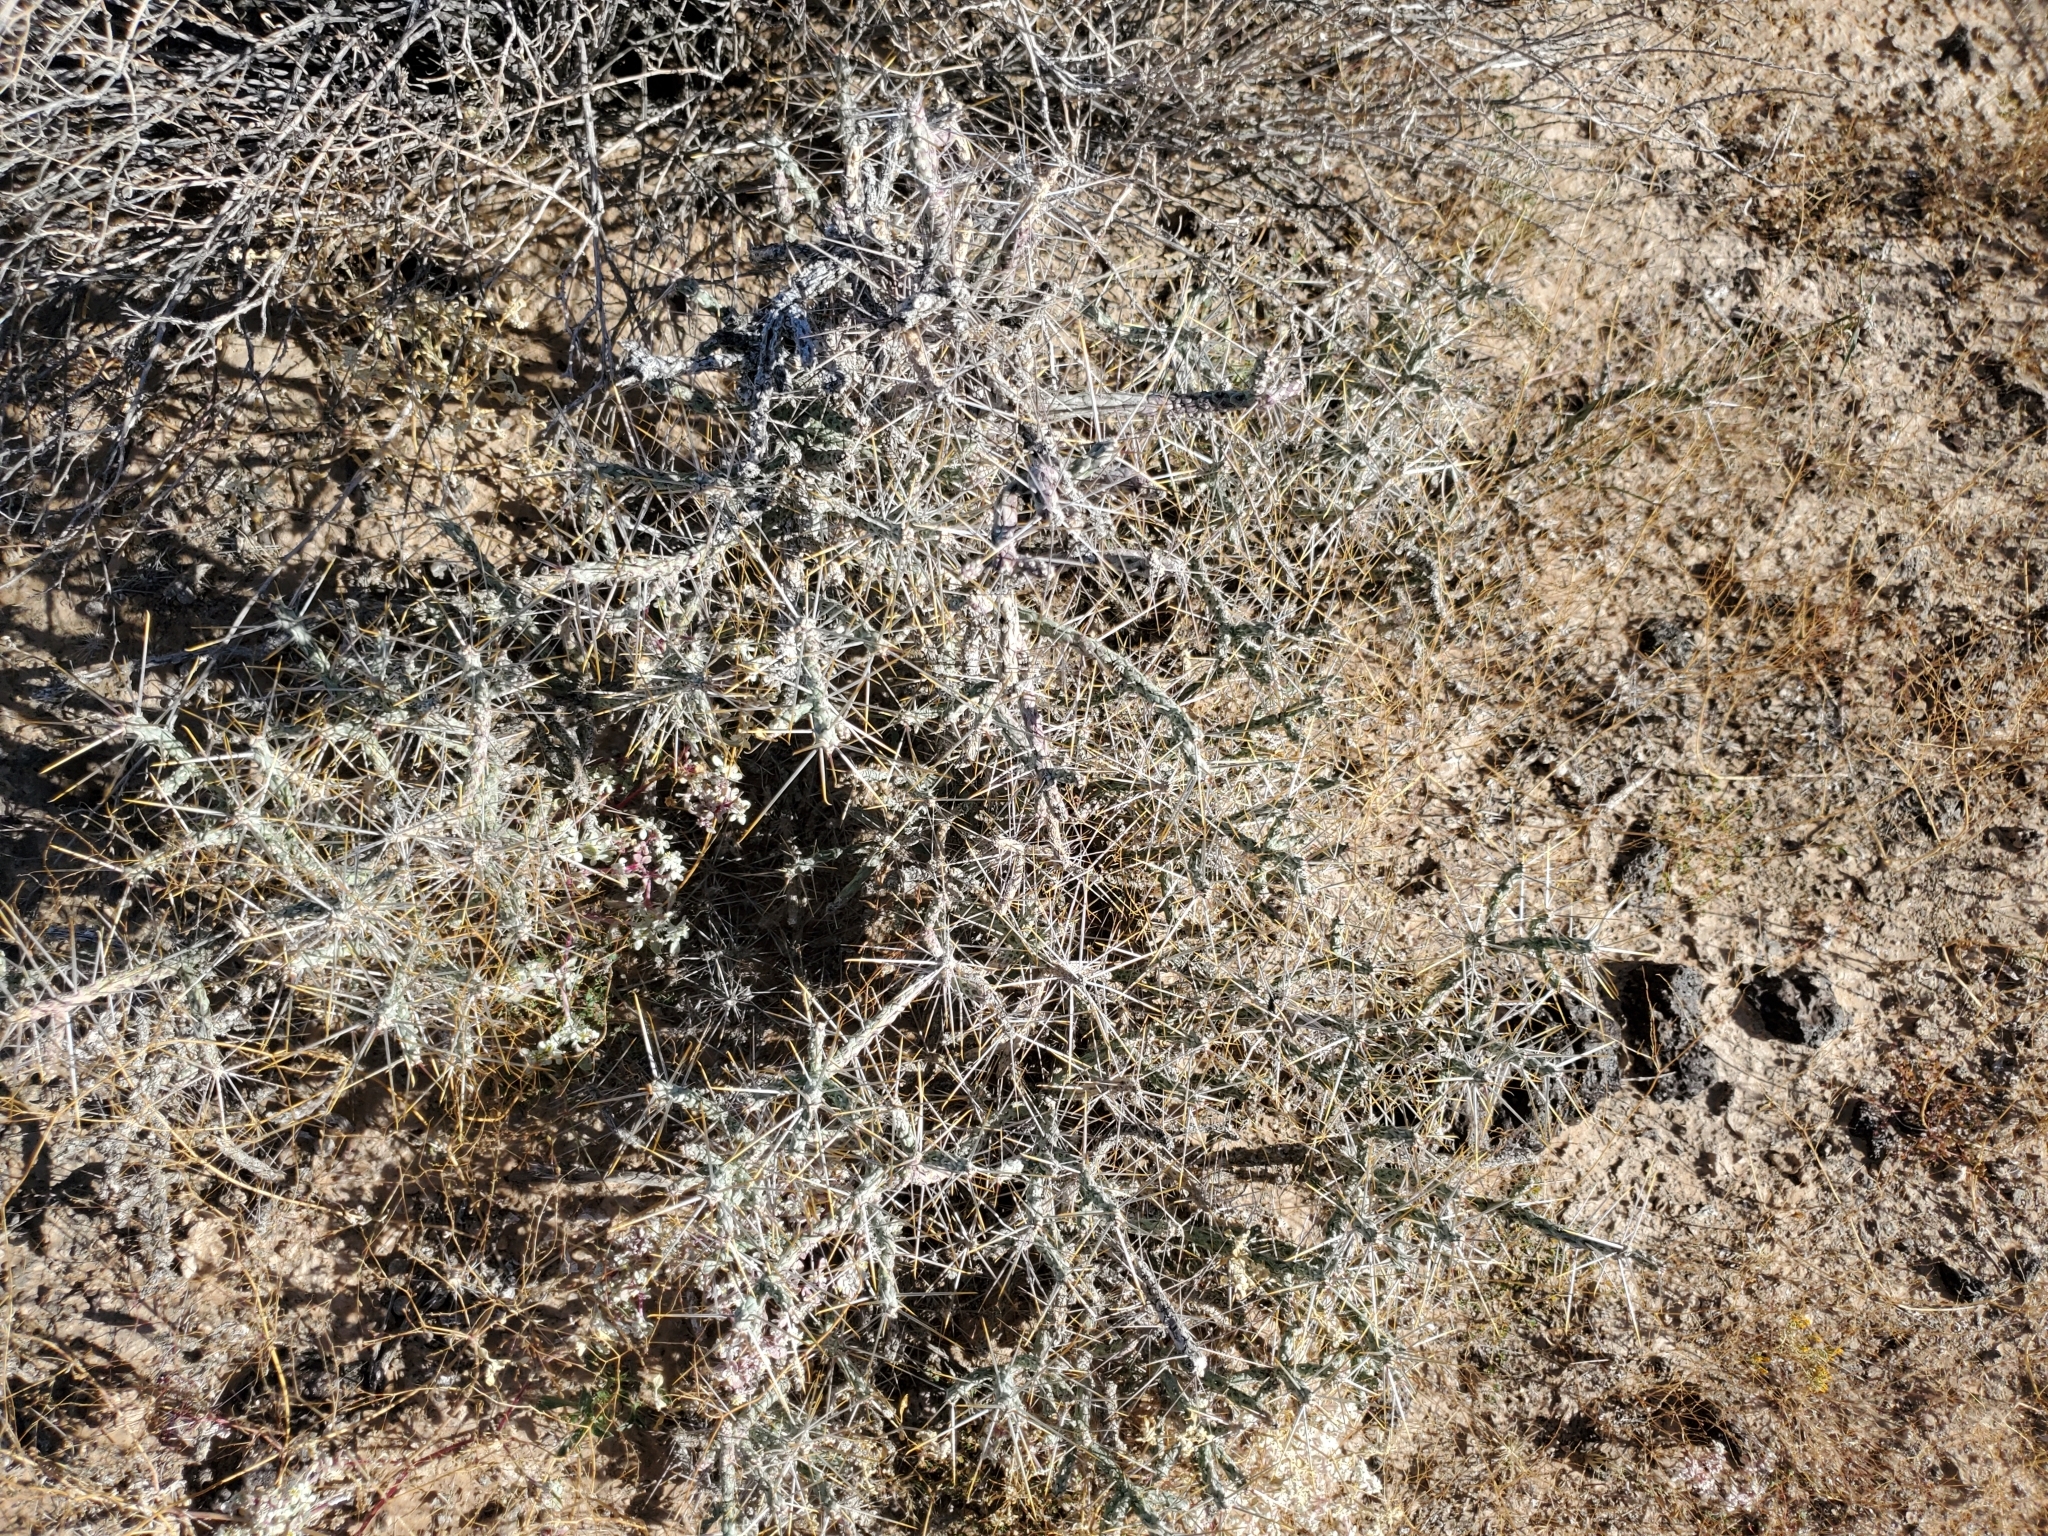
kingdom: Plantae
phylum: Tracheophyta
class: Magnoliopsida
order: Caryophyllales
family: Cactaceae
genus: Cylindropuntia
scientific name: Cylindropuntia ramosissima
